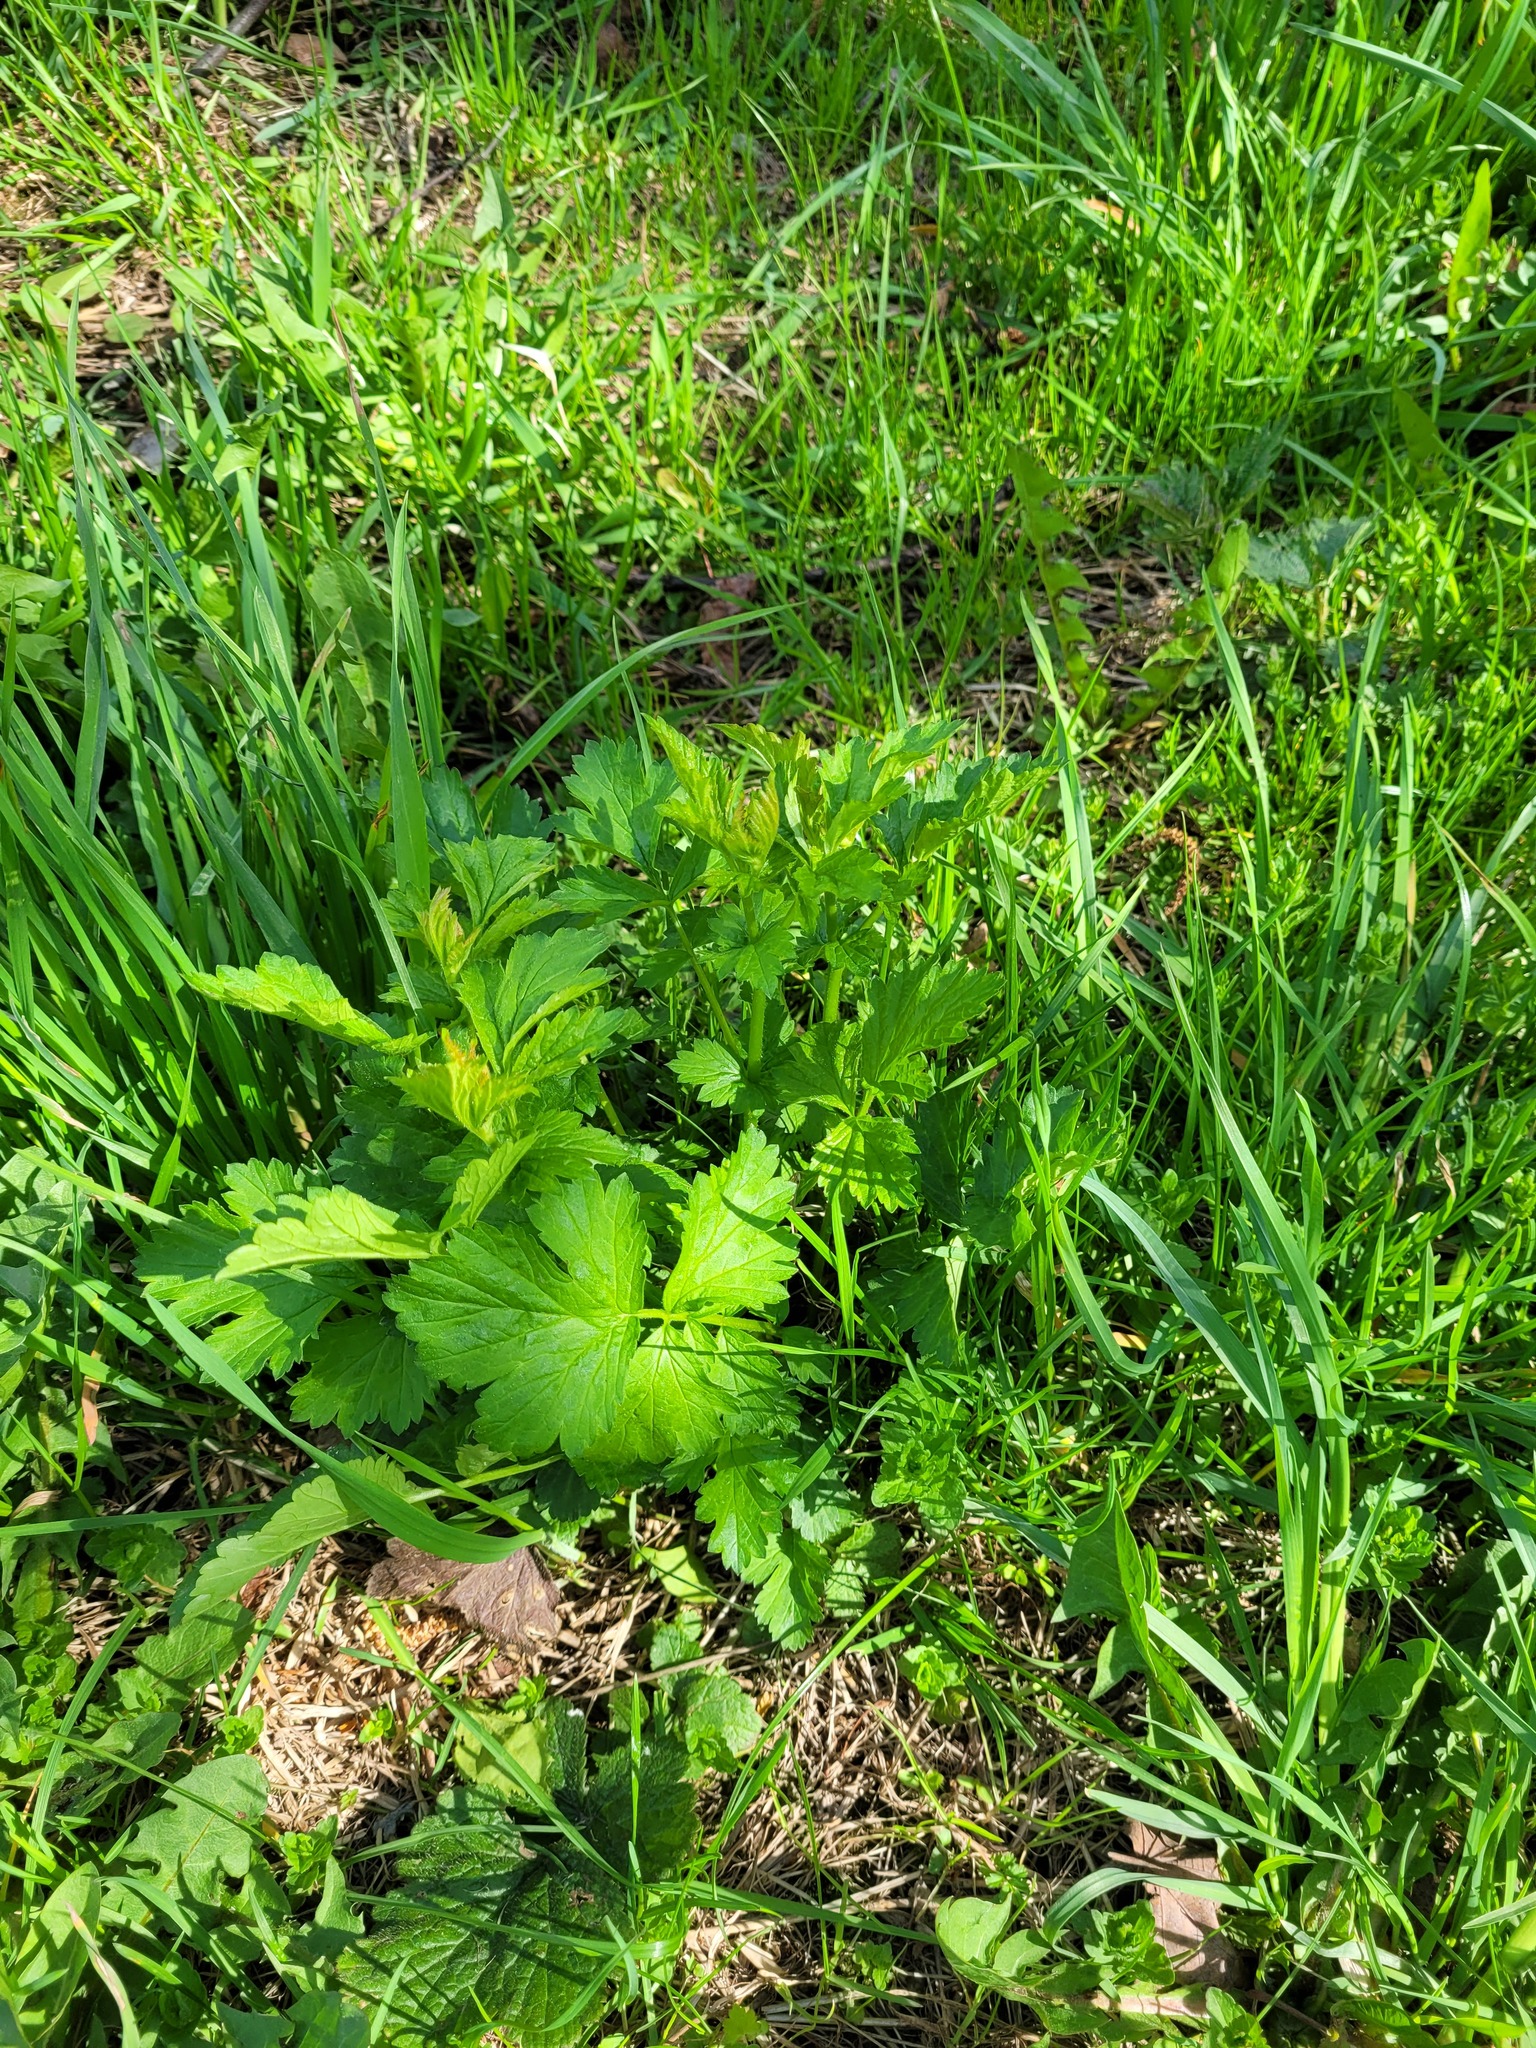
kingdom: Plantae
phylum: Tracheophyta
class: Magnoliopsida
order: Rosales
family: Rosaceae
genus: Geum
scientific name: Geum urbanum
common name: Wood avens
